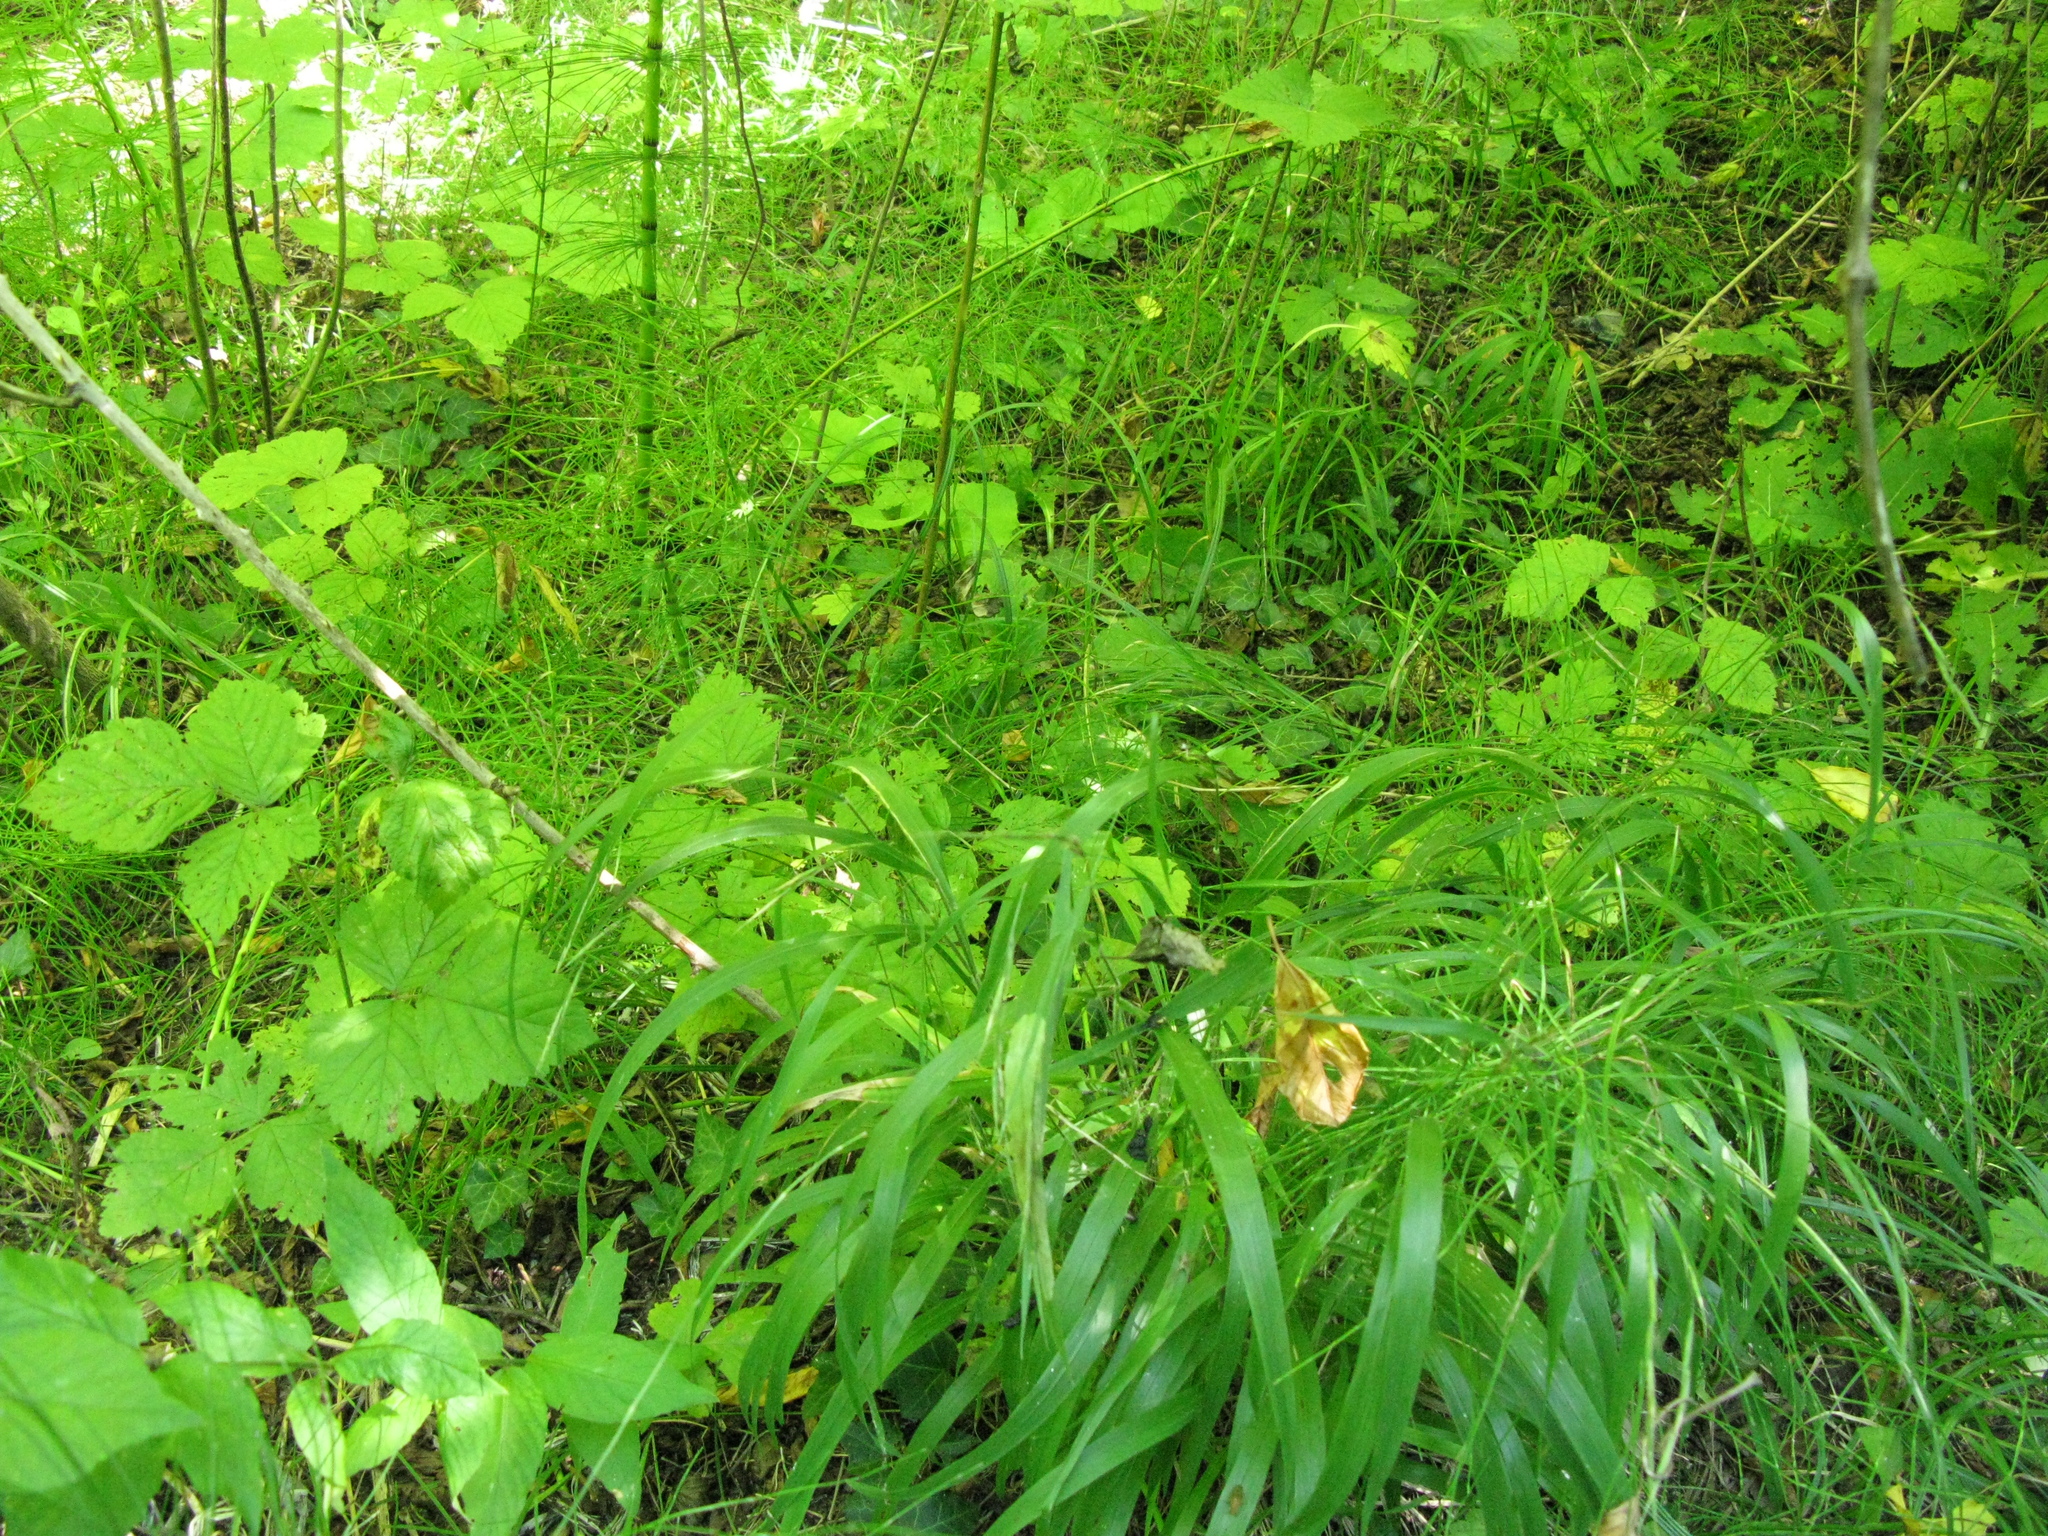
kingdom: Plantae
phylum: Tracheophyta
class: Liliopsida
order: Poales
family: Poaceae
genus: Brachypodium
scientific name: Brachypodium sylvaticum
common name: False-brome
